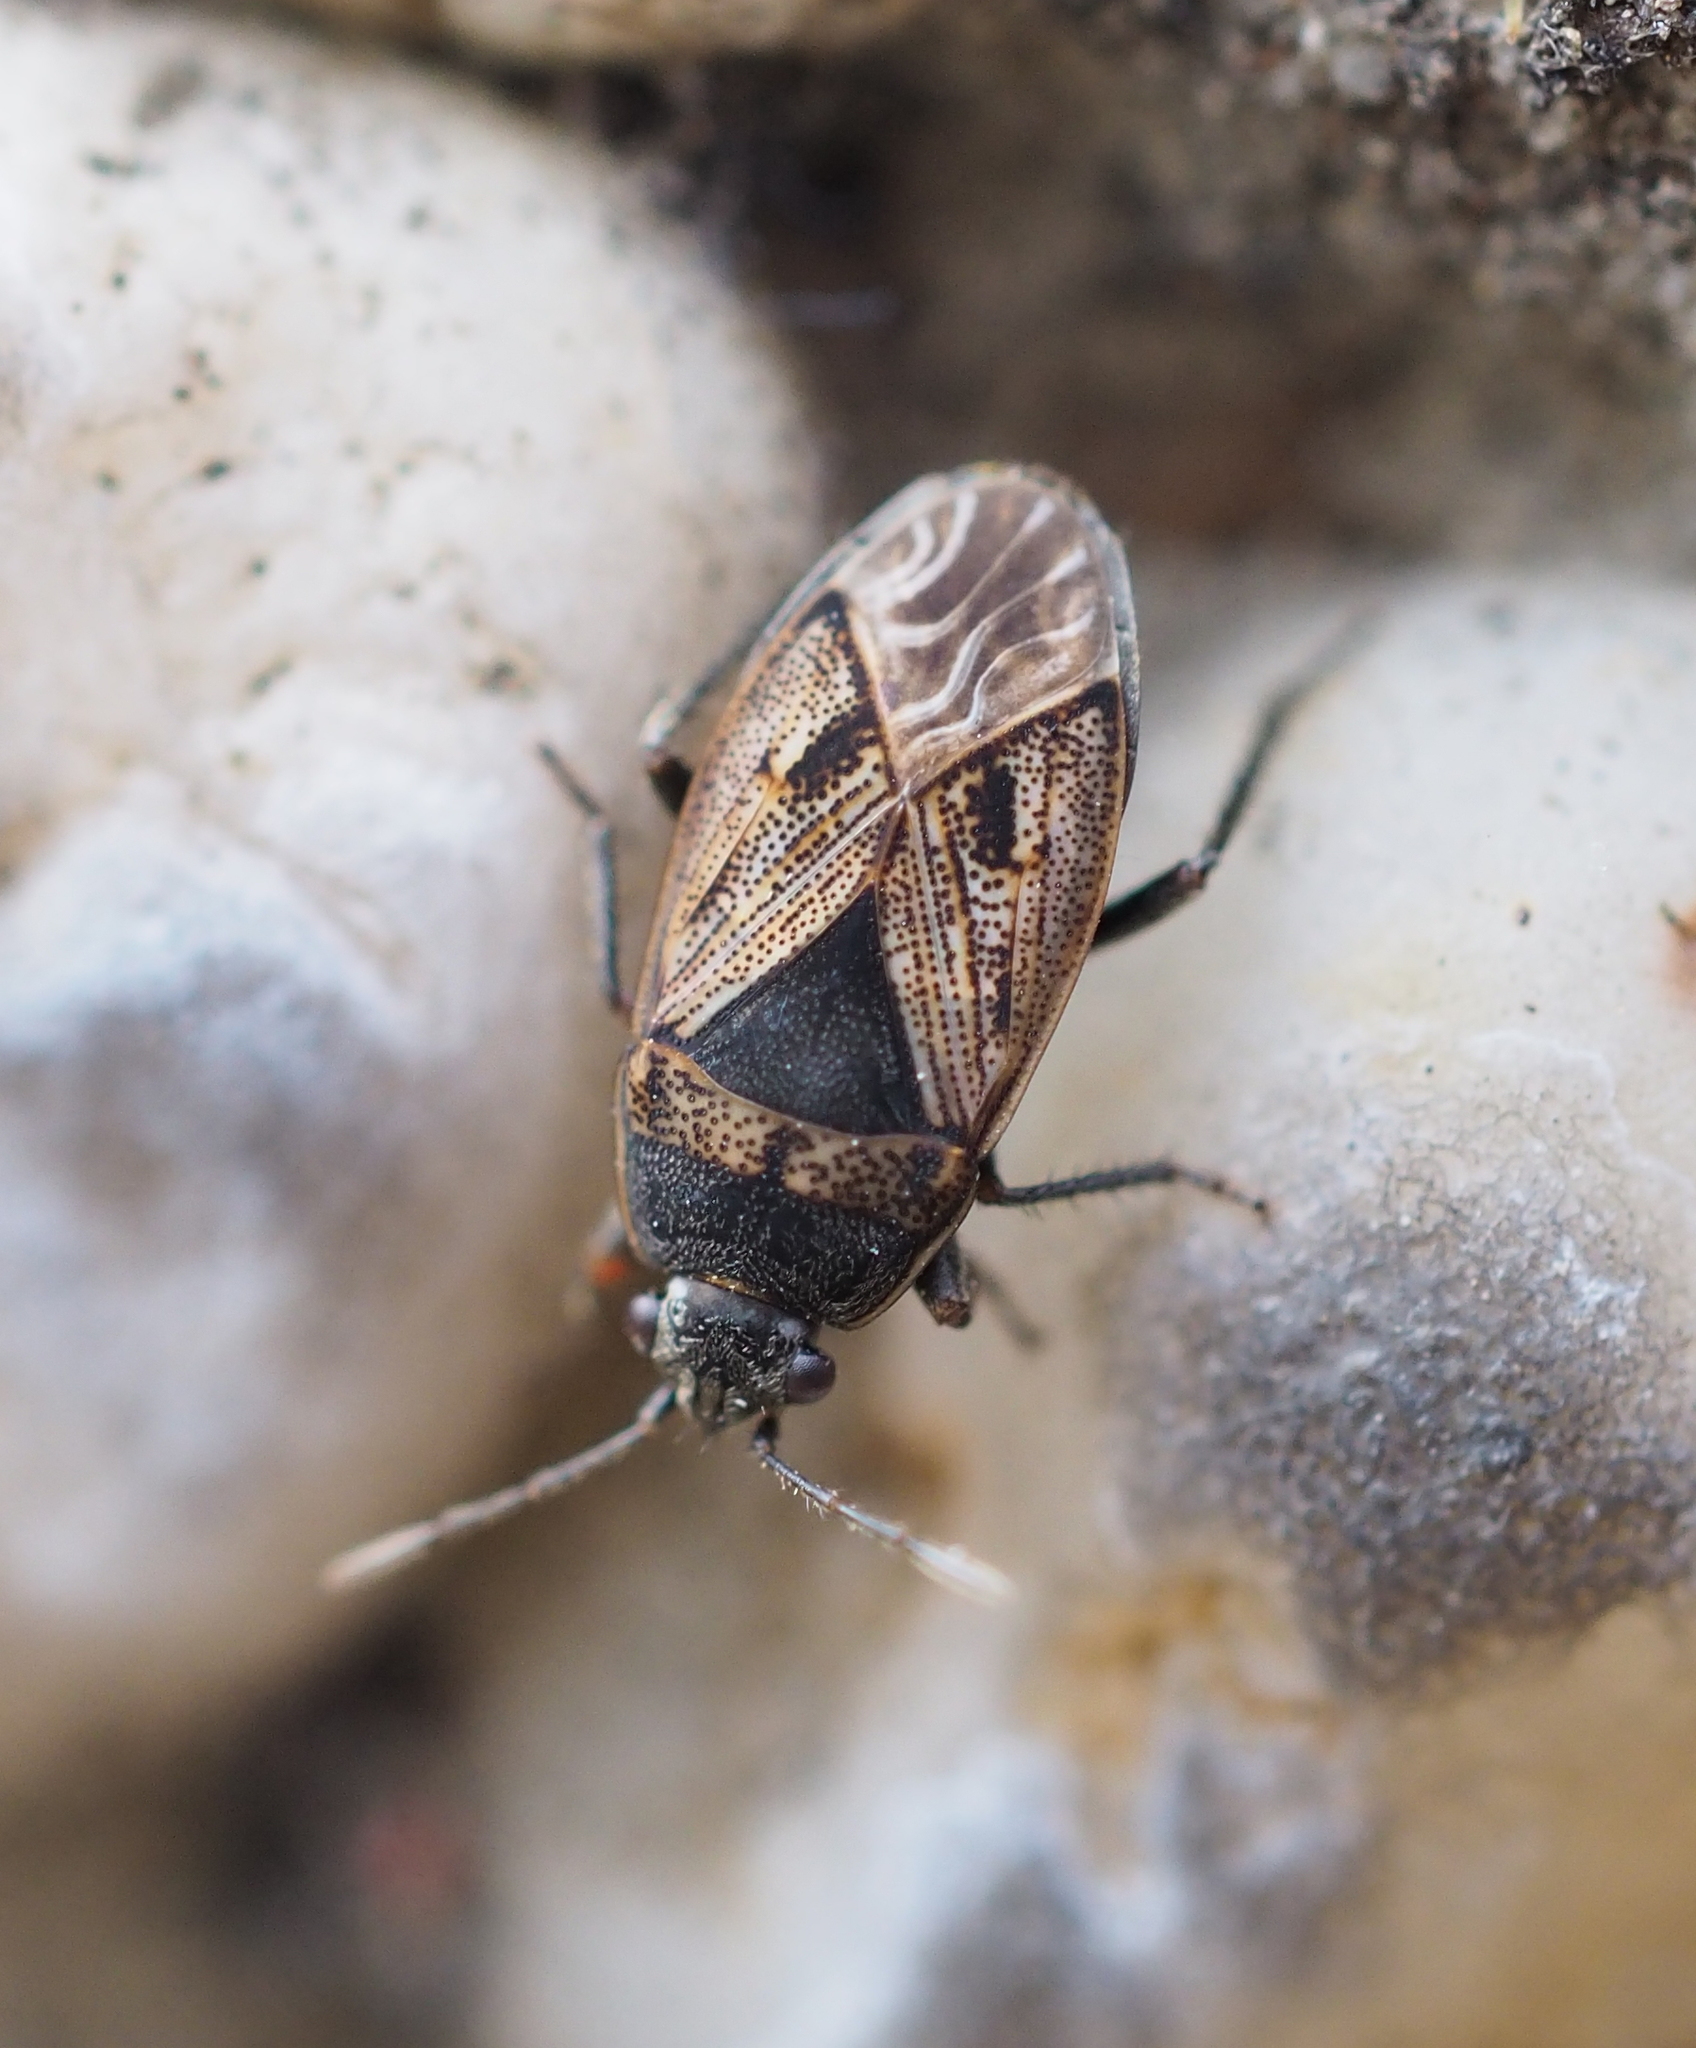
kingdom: Animalia
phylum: Arthropoda
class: Insecta
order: Hemiptera
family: Rhyparochromidae
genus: Trapezonotus
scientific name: Trapezonotus
